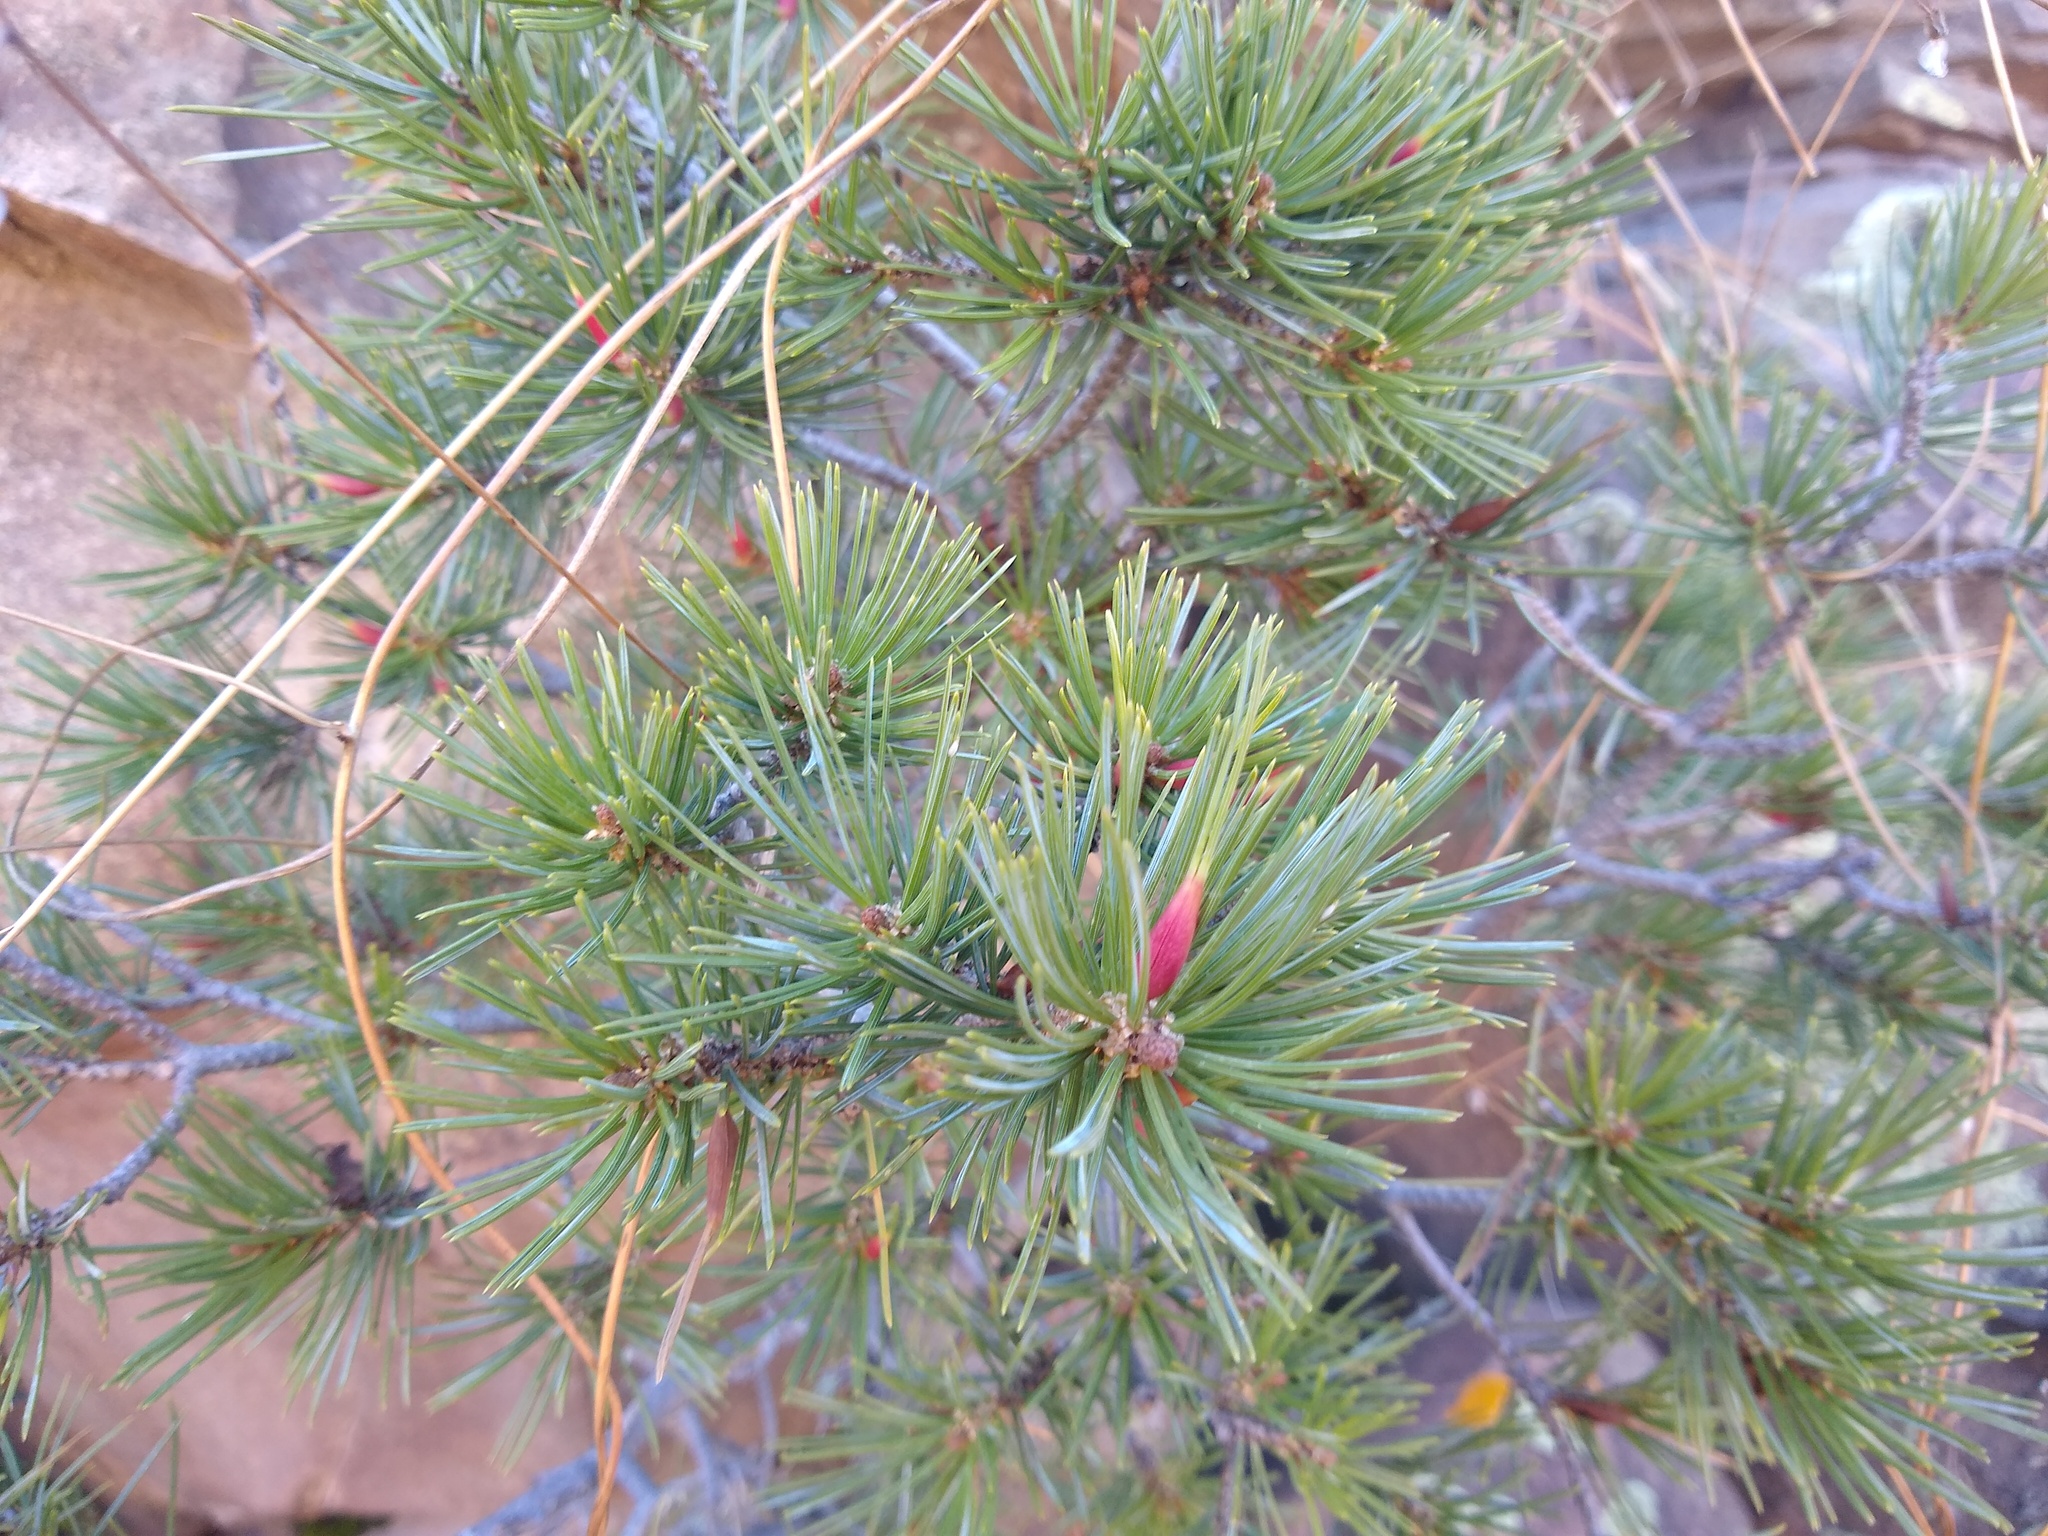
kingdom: Plantae
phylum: Tracheophyta
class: Pinopsida
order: Pinales
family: Pinaceae
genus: Pinus
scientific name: Pinus edulis
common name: Colorado pinyon
